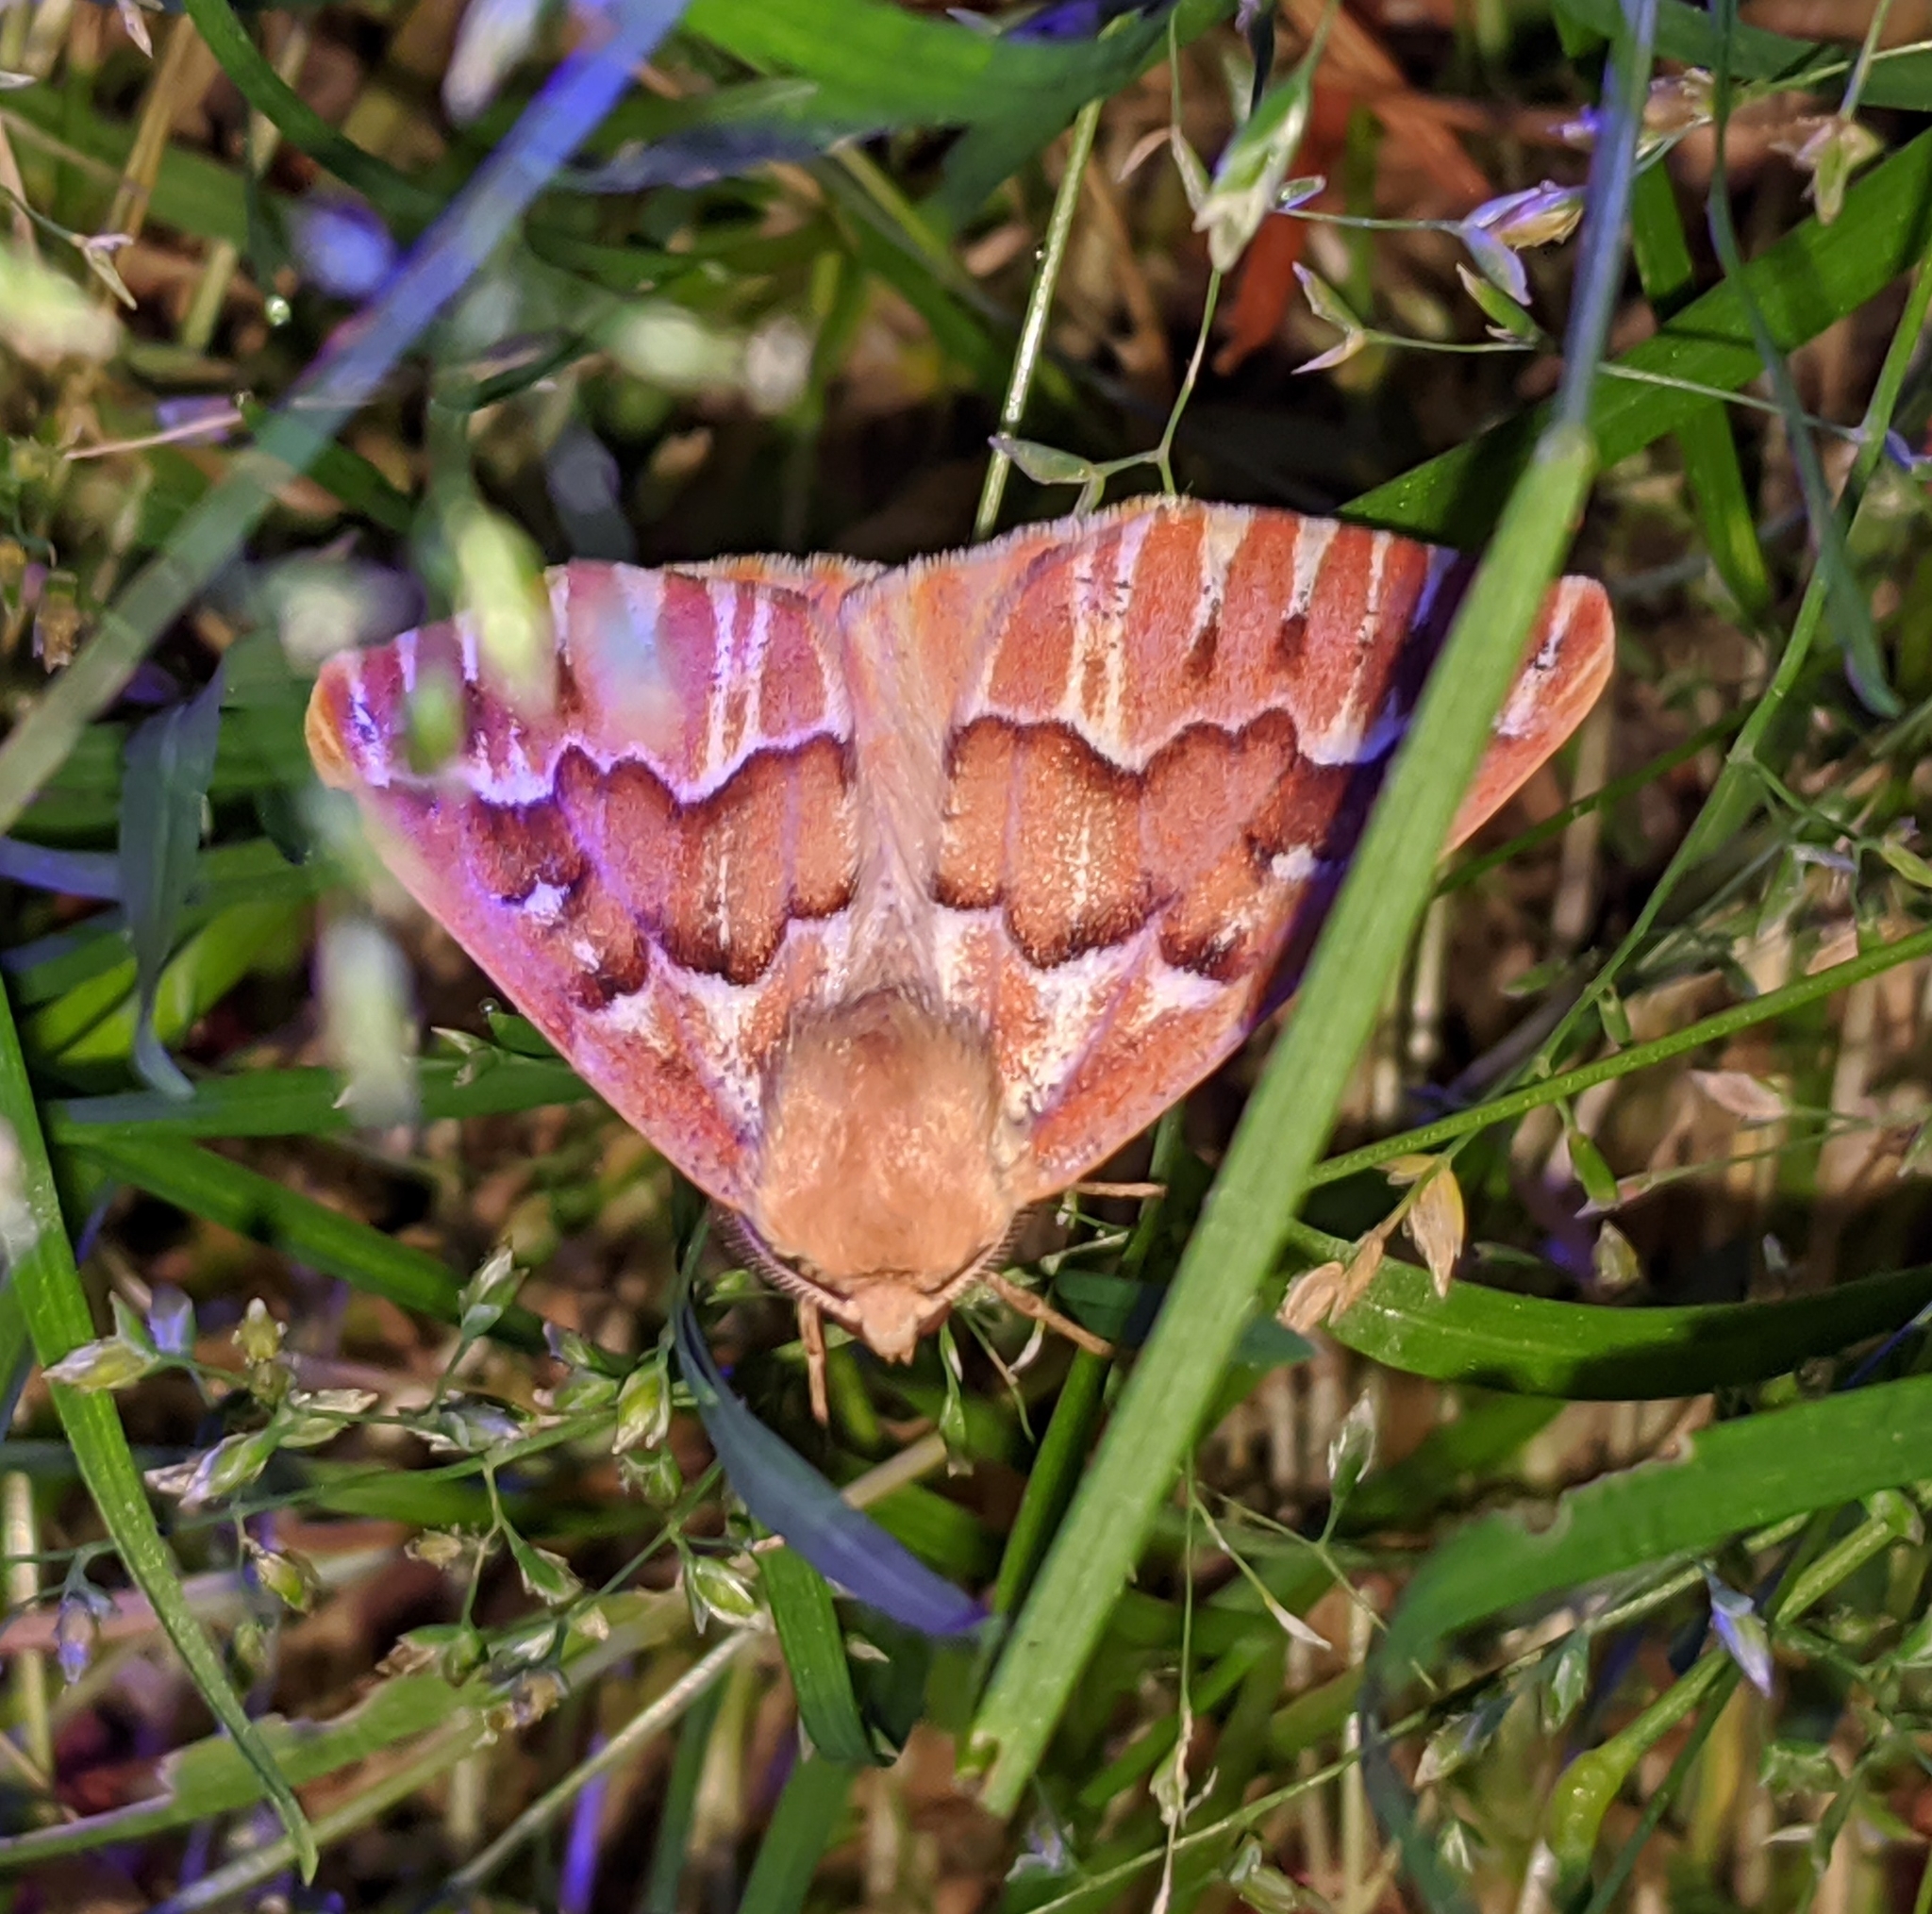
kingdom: Animalia
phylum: Arthropoda
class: Insecta
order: Lepidoptera
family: Geometridae
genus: Caripeta
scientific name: Caripeta aequaliaria
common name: Red girdle moth
